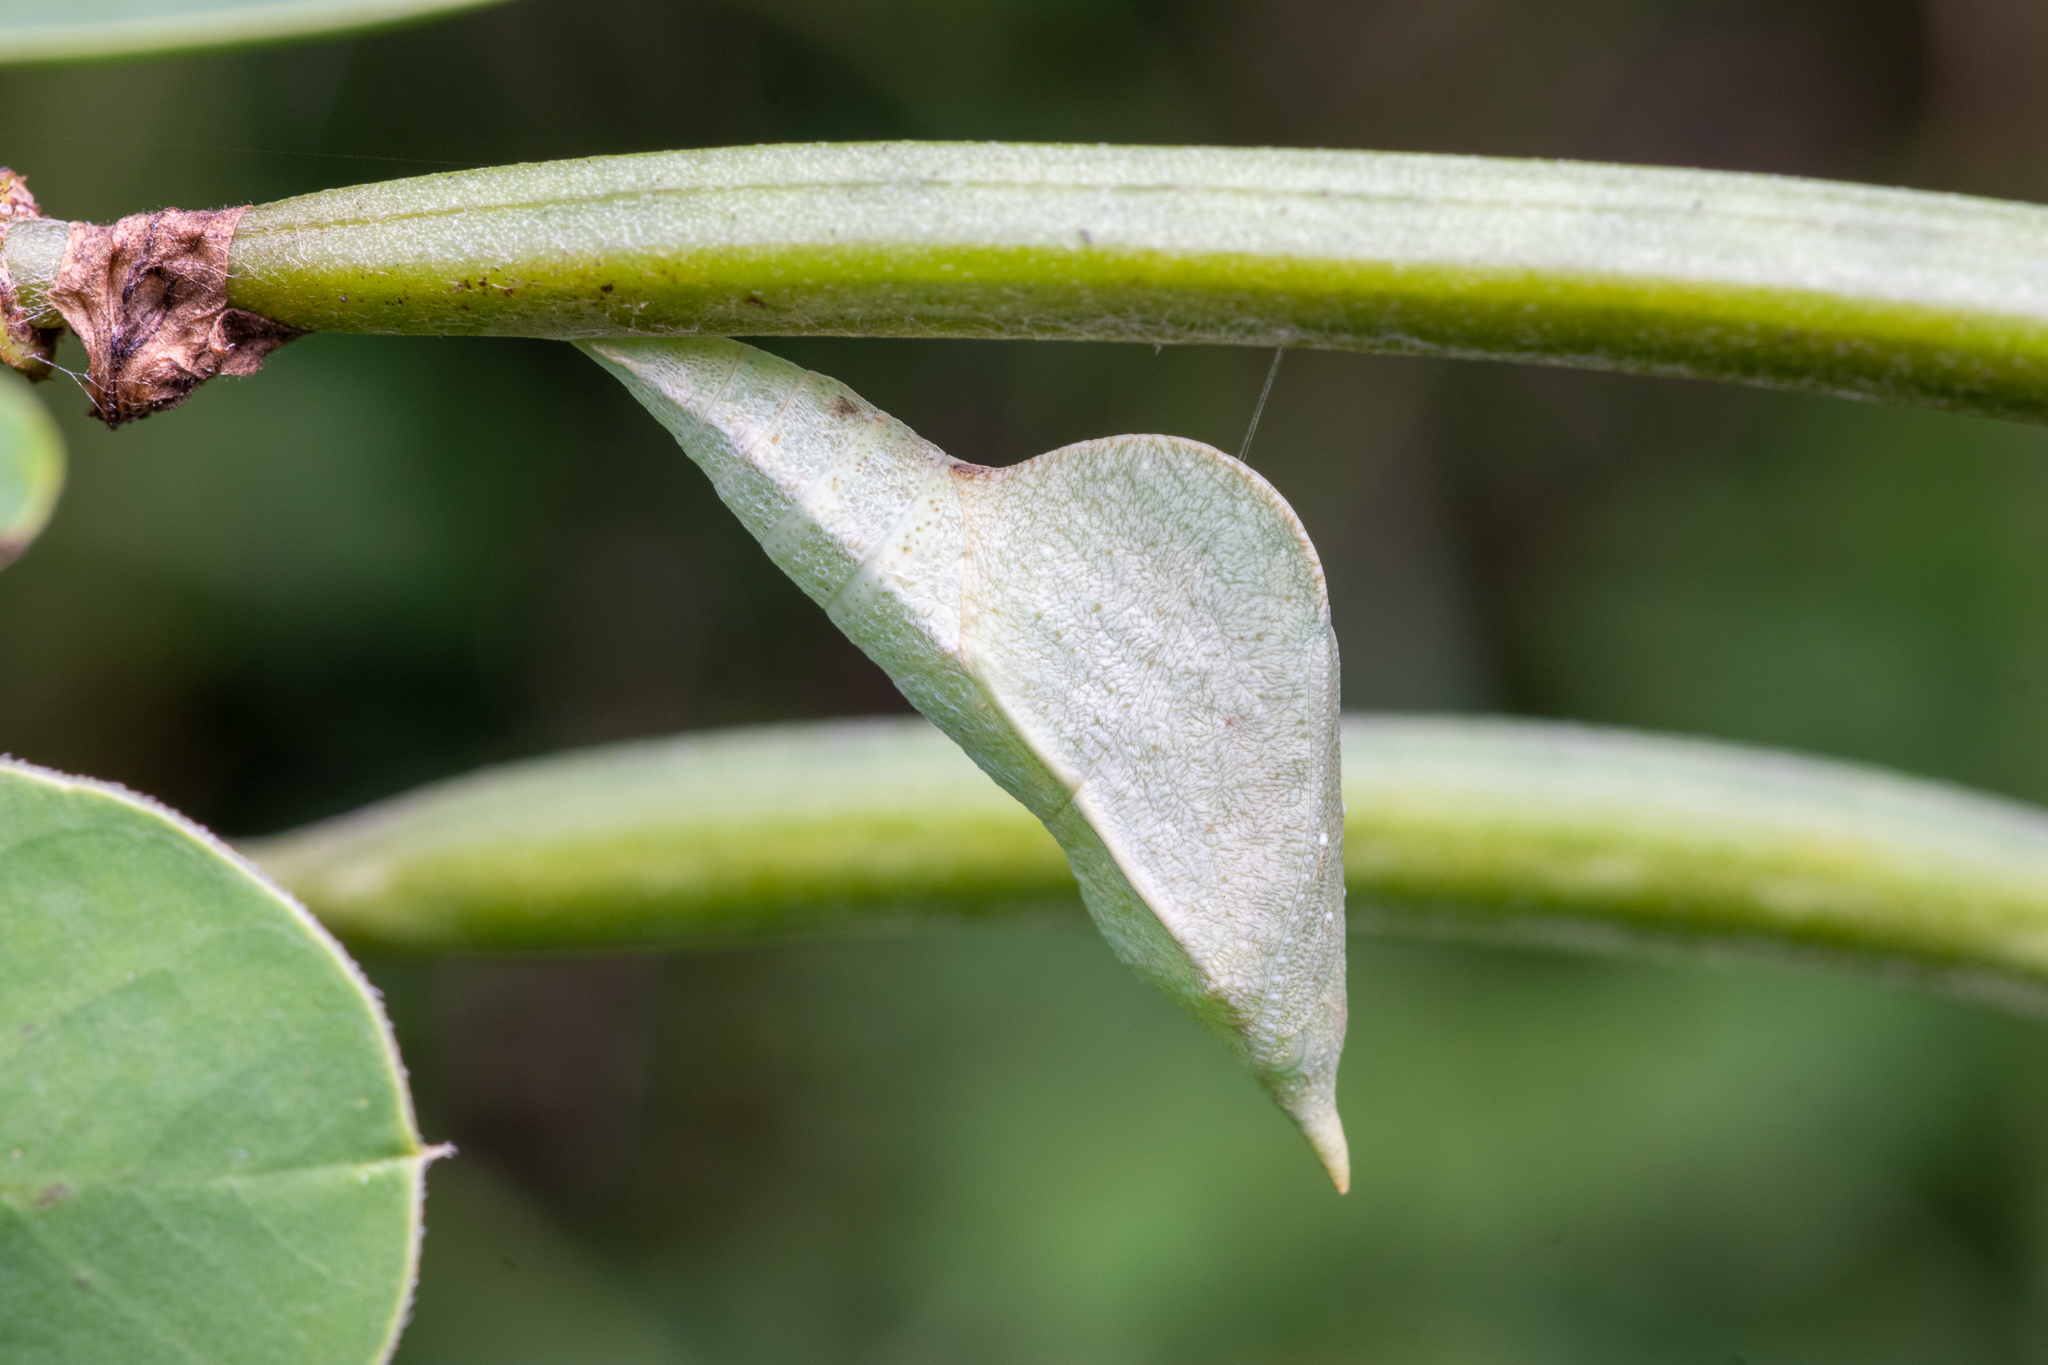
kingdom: Animalia
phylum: Arthropoda
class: Insecta
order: Lepidoptera
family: Pieridae
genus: Abaeis
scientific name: Abaeis nicippe
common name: Sleepy orange
